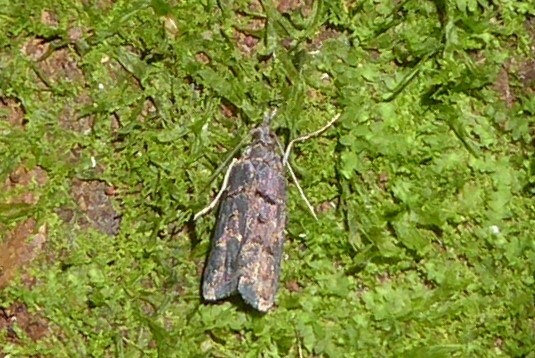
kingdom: Animalia
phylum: Arthropoda
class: Insecta
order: Lepidoptera
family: Carposinidae
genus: Carposina
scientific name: Carposina
